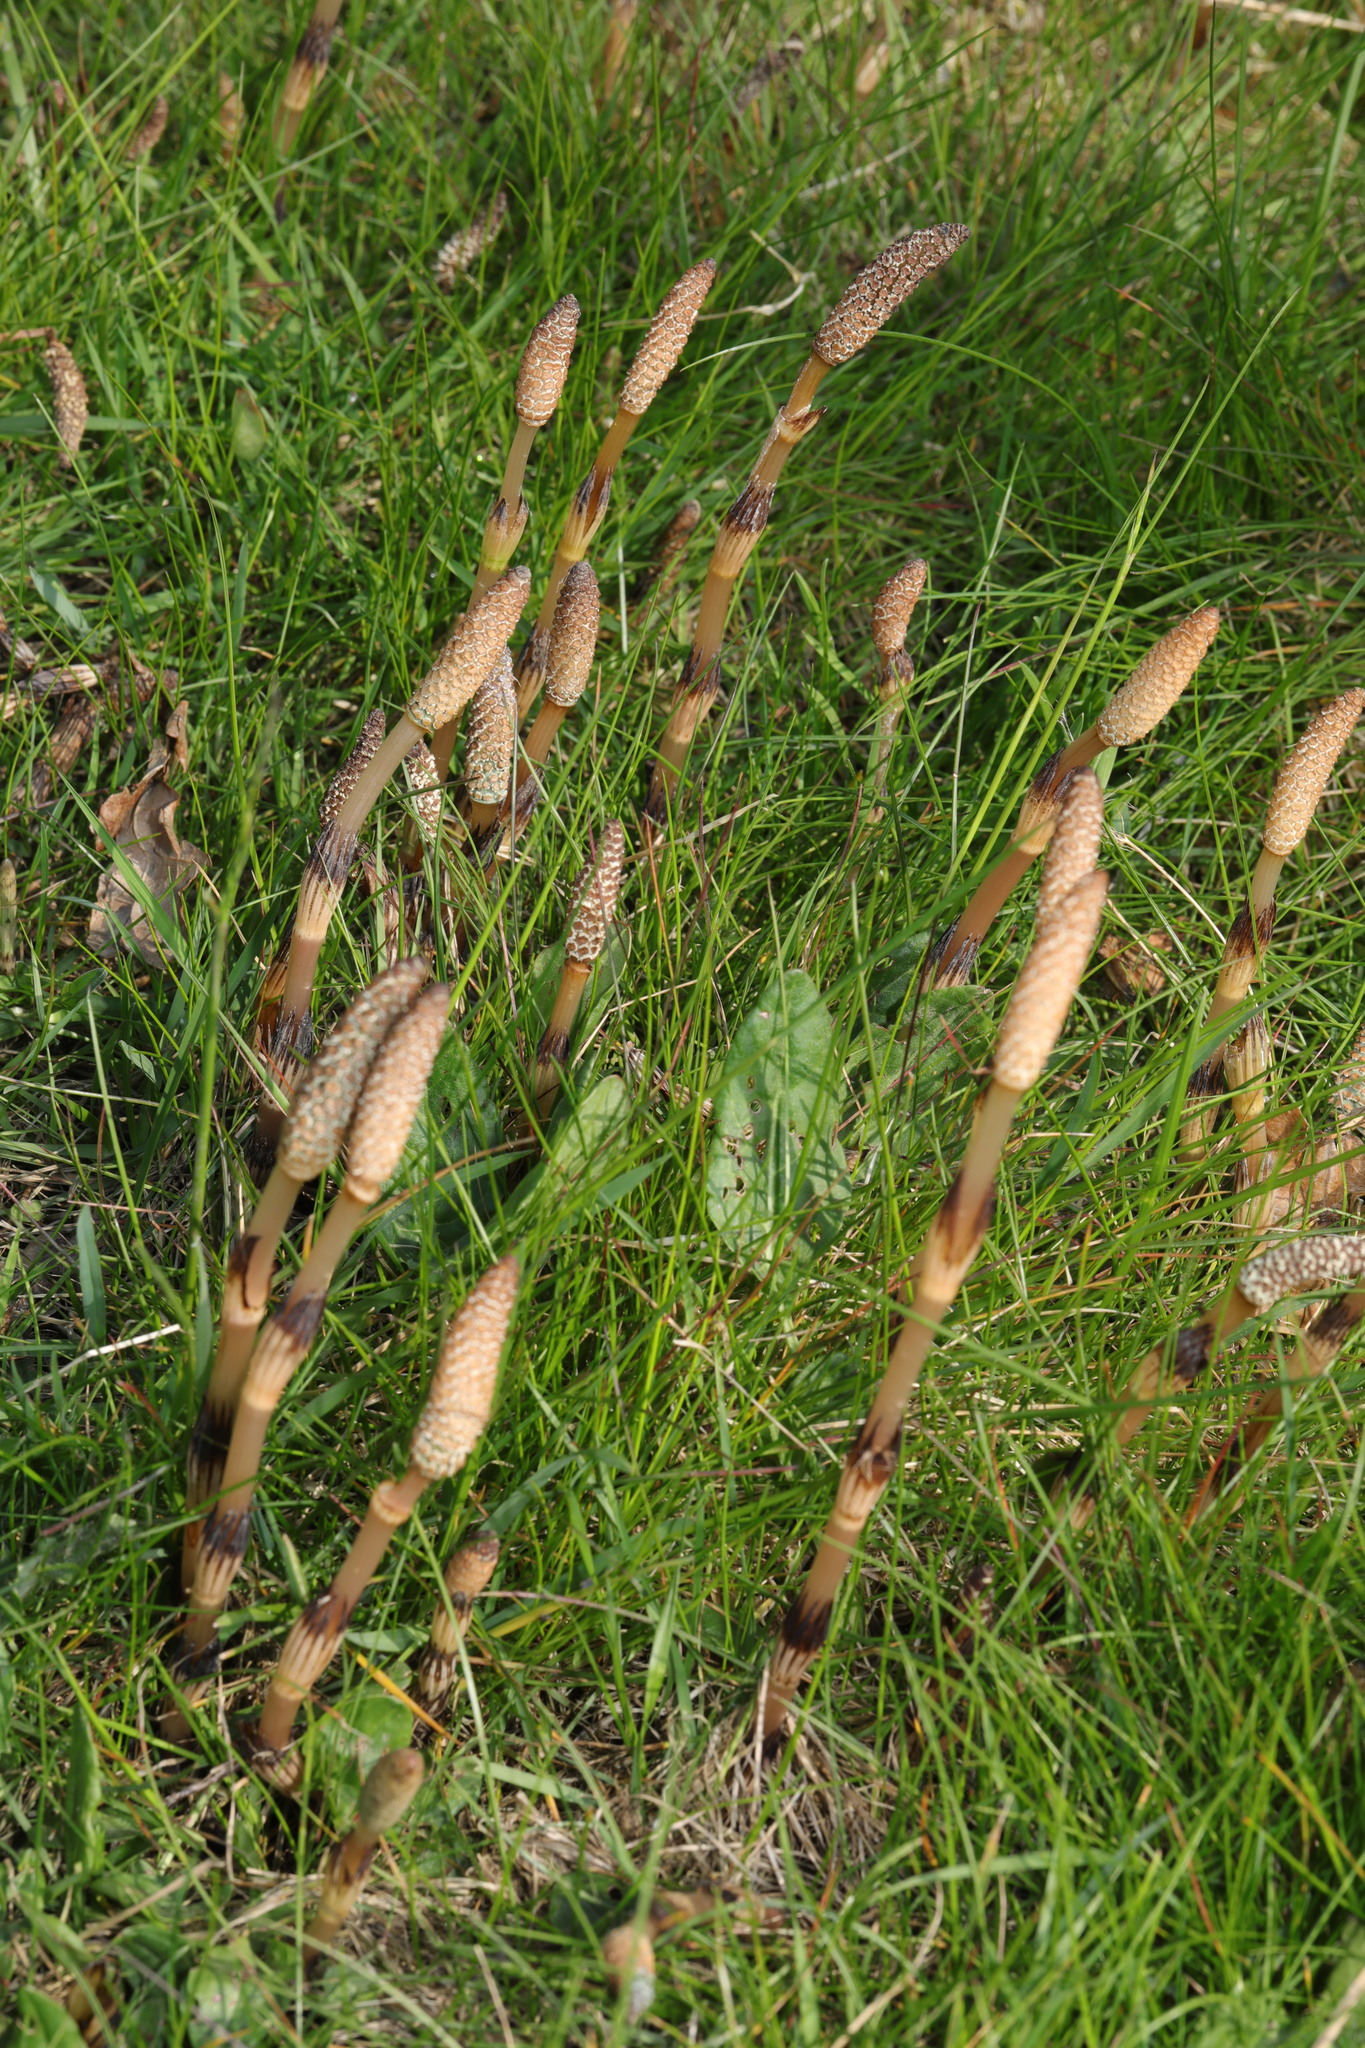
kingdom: Plantae
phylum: Tracheophyta
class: Polypodiopsida
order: Equisetales
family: Equisetaceae
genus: Equisetum
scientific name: Equisetum arvense
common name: Field horsetail
